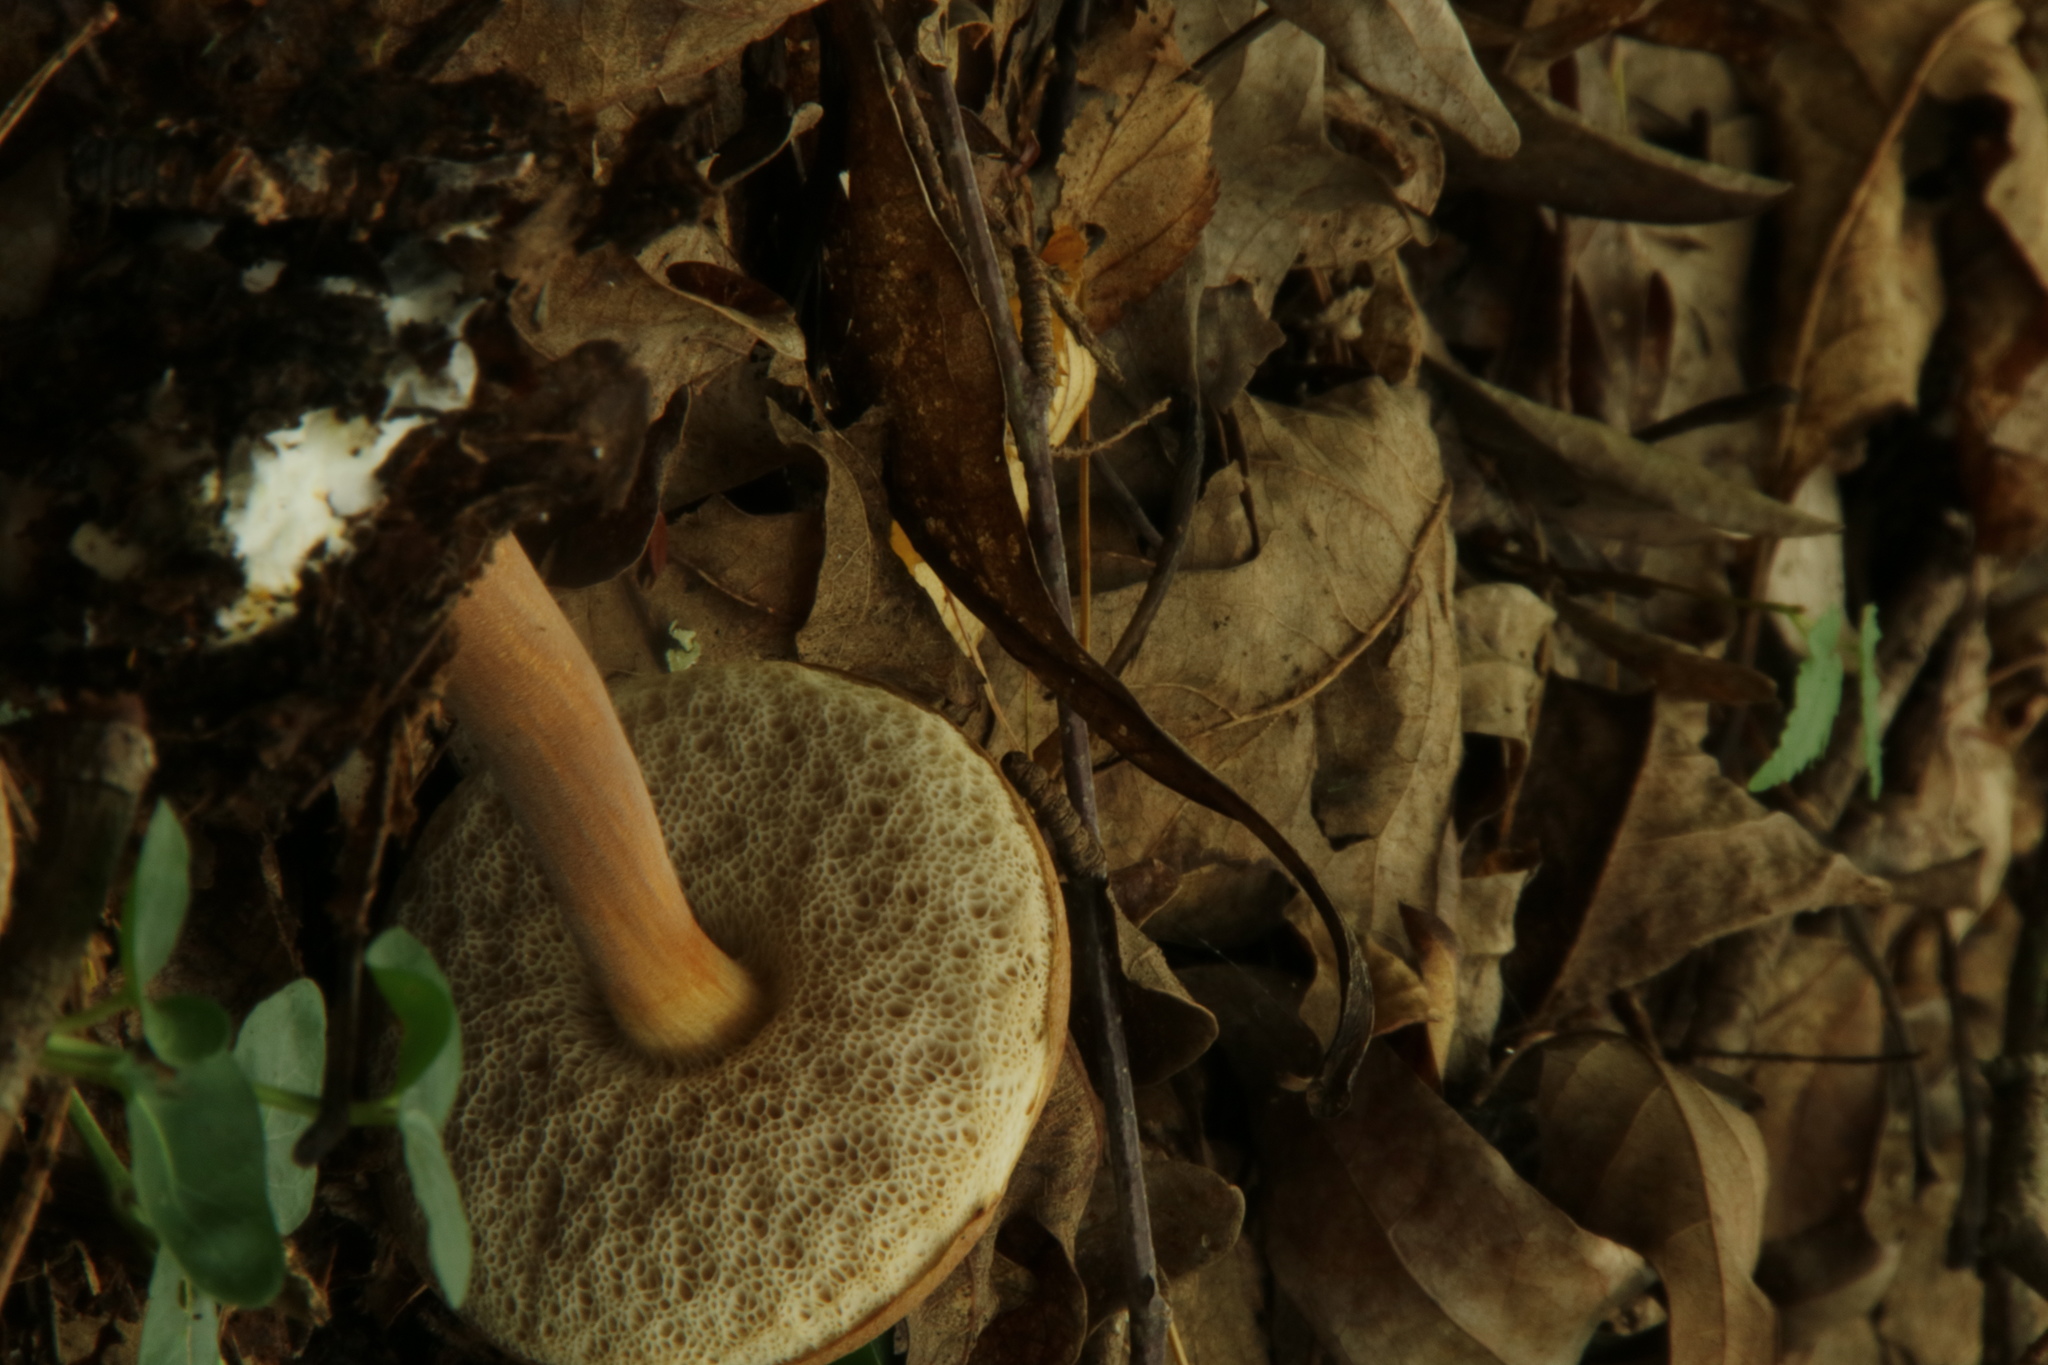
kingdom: Fungi
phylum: Basidiomycota
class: Agaricomycetes
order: Boletales
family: Boletaceae
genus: Austroboletus
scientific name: Austroboletus gracilis
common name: Graceful bolete
